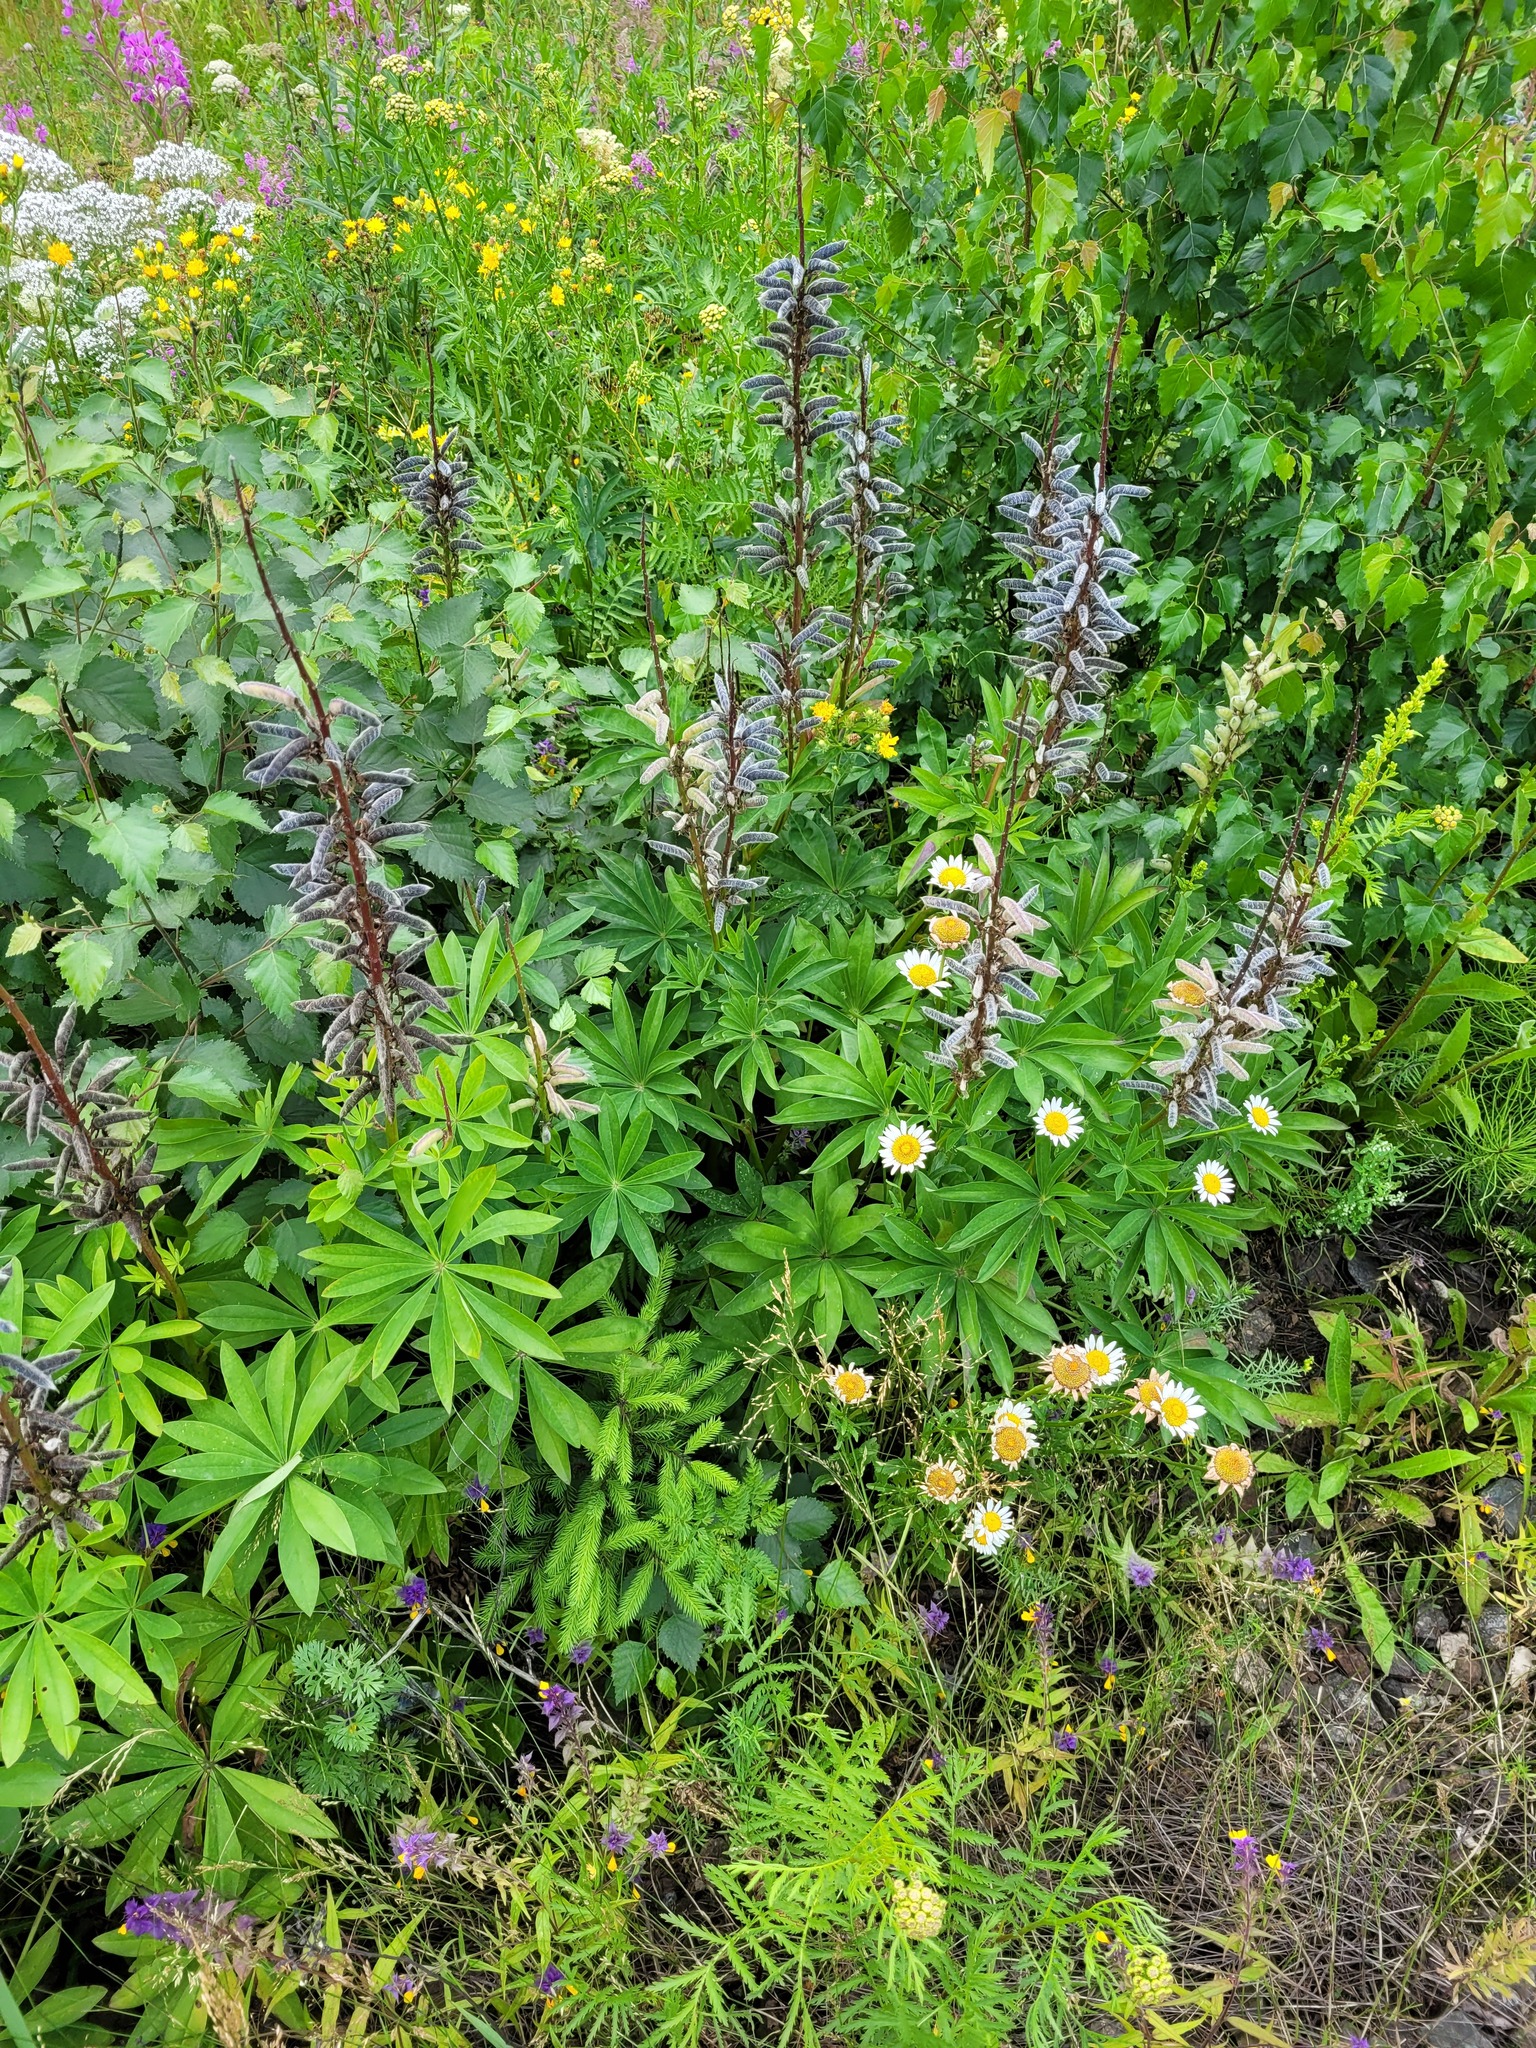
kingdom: Plantae
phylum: Tracheophyta
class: Magnoliopsida
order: Fabales
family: Fabaceae
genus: Lupinus
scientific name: Lupinus polyphyllus
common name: Garden lupin
